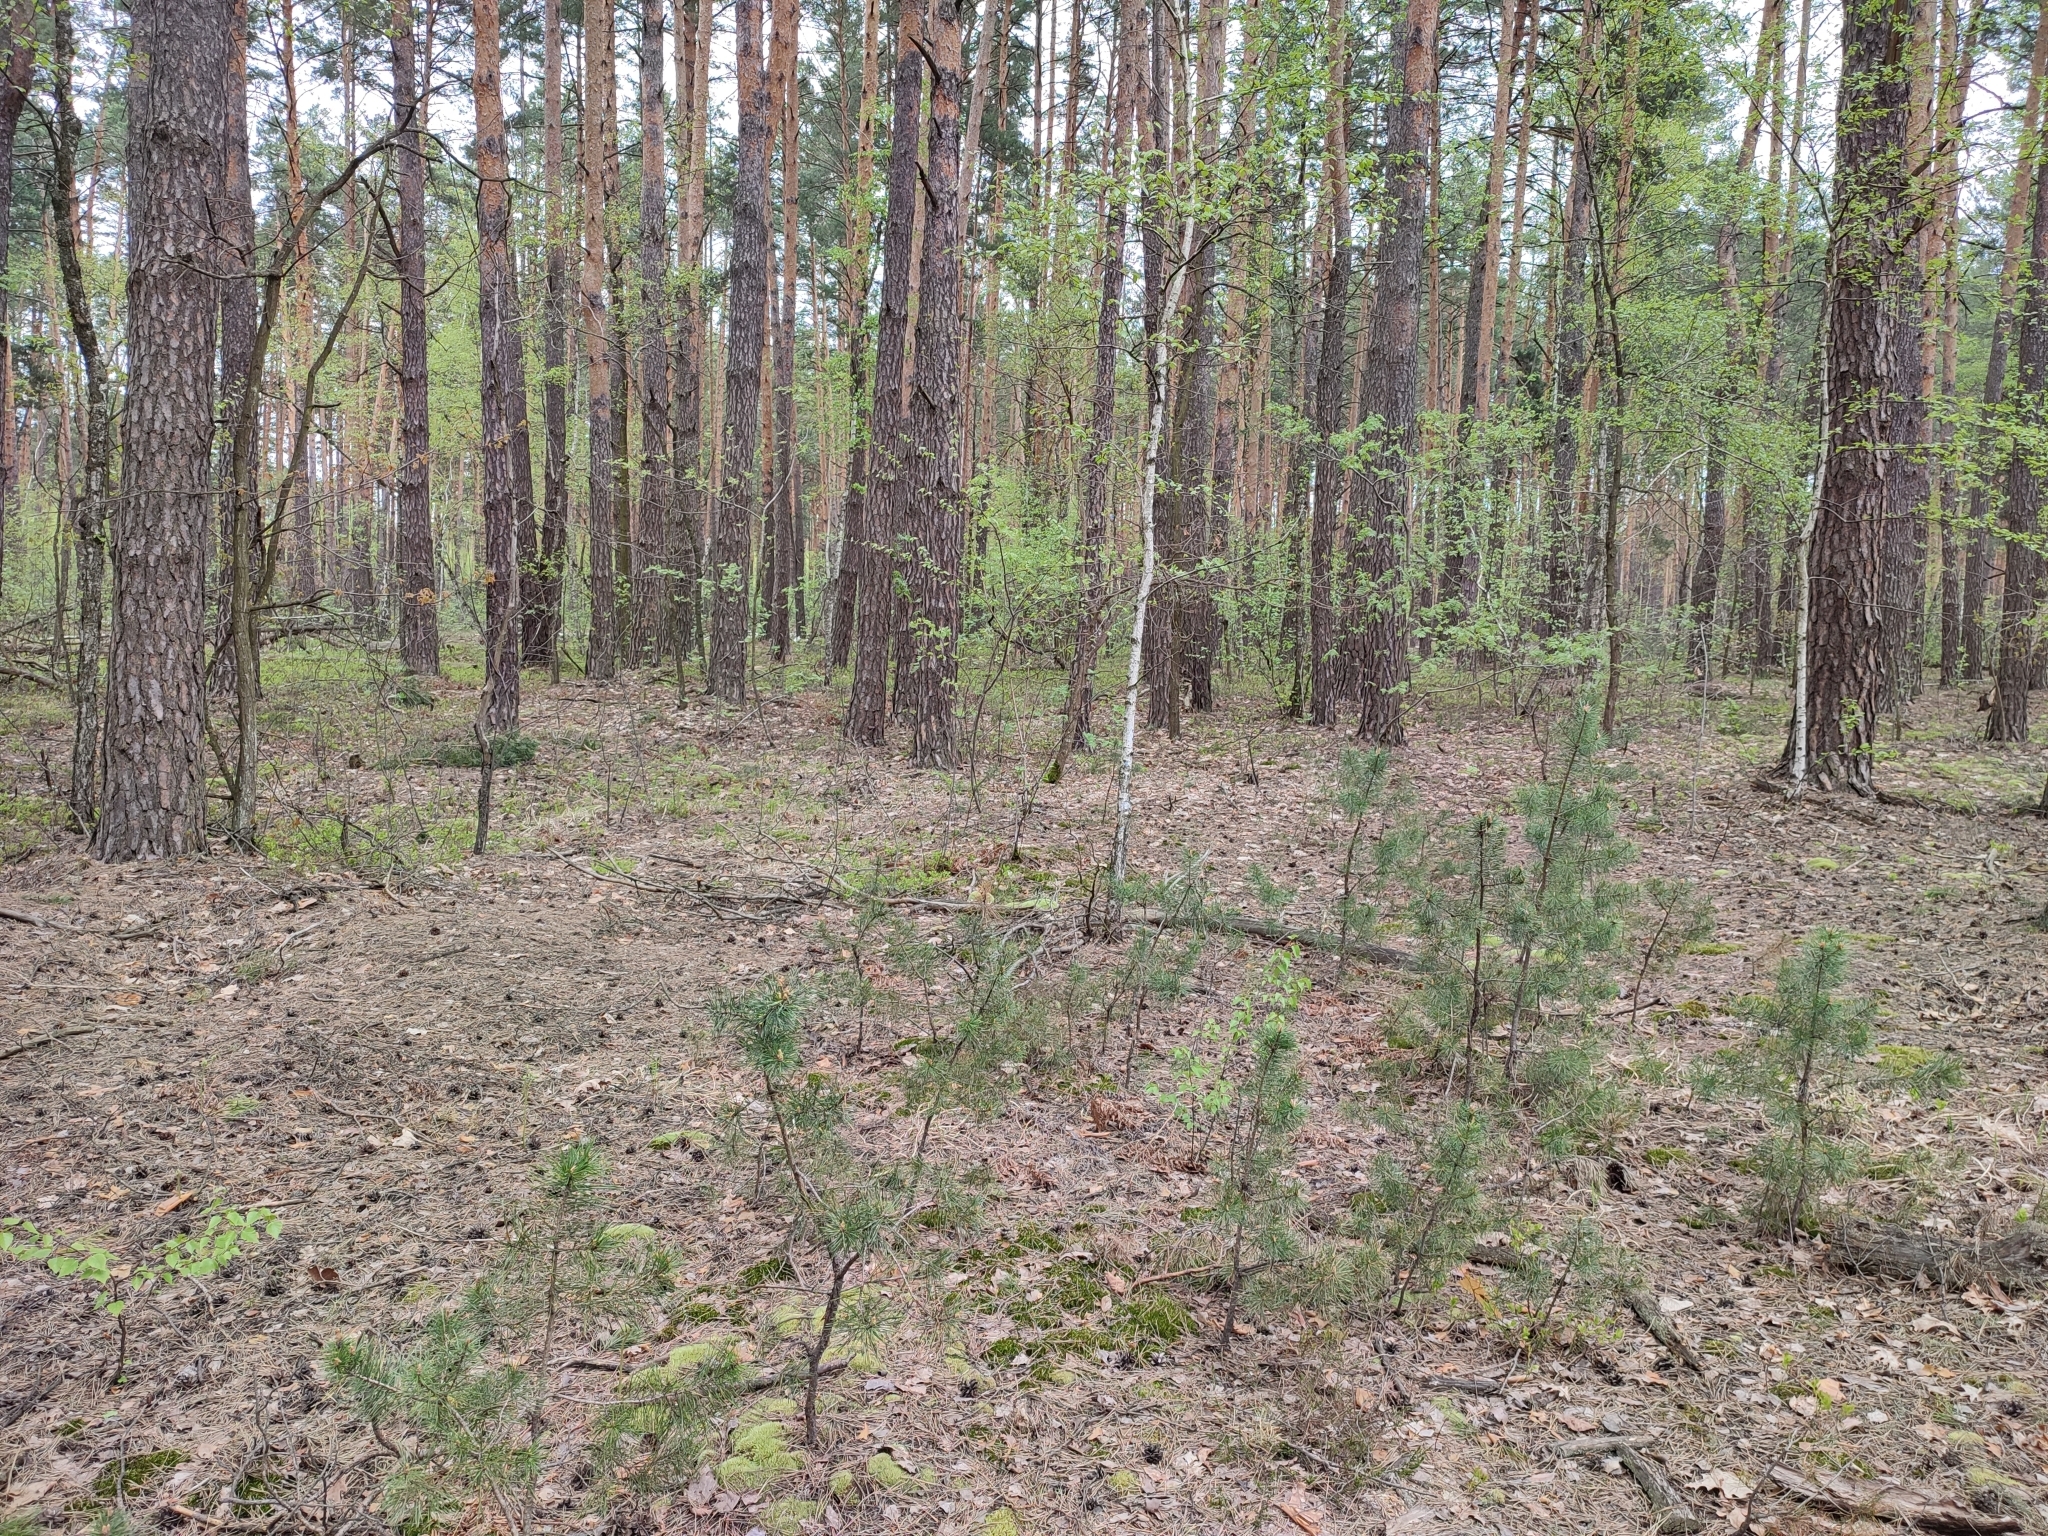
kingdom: Plantae
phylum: Tracheophyta
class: Pinopsida
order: Pinales
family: Pinaceae
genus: Pinus
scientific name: Pinus sylvestris
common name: Scots pine
